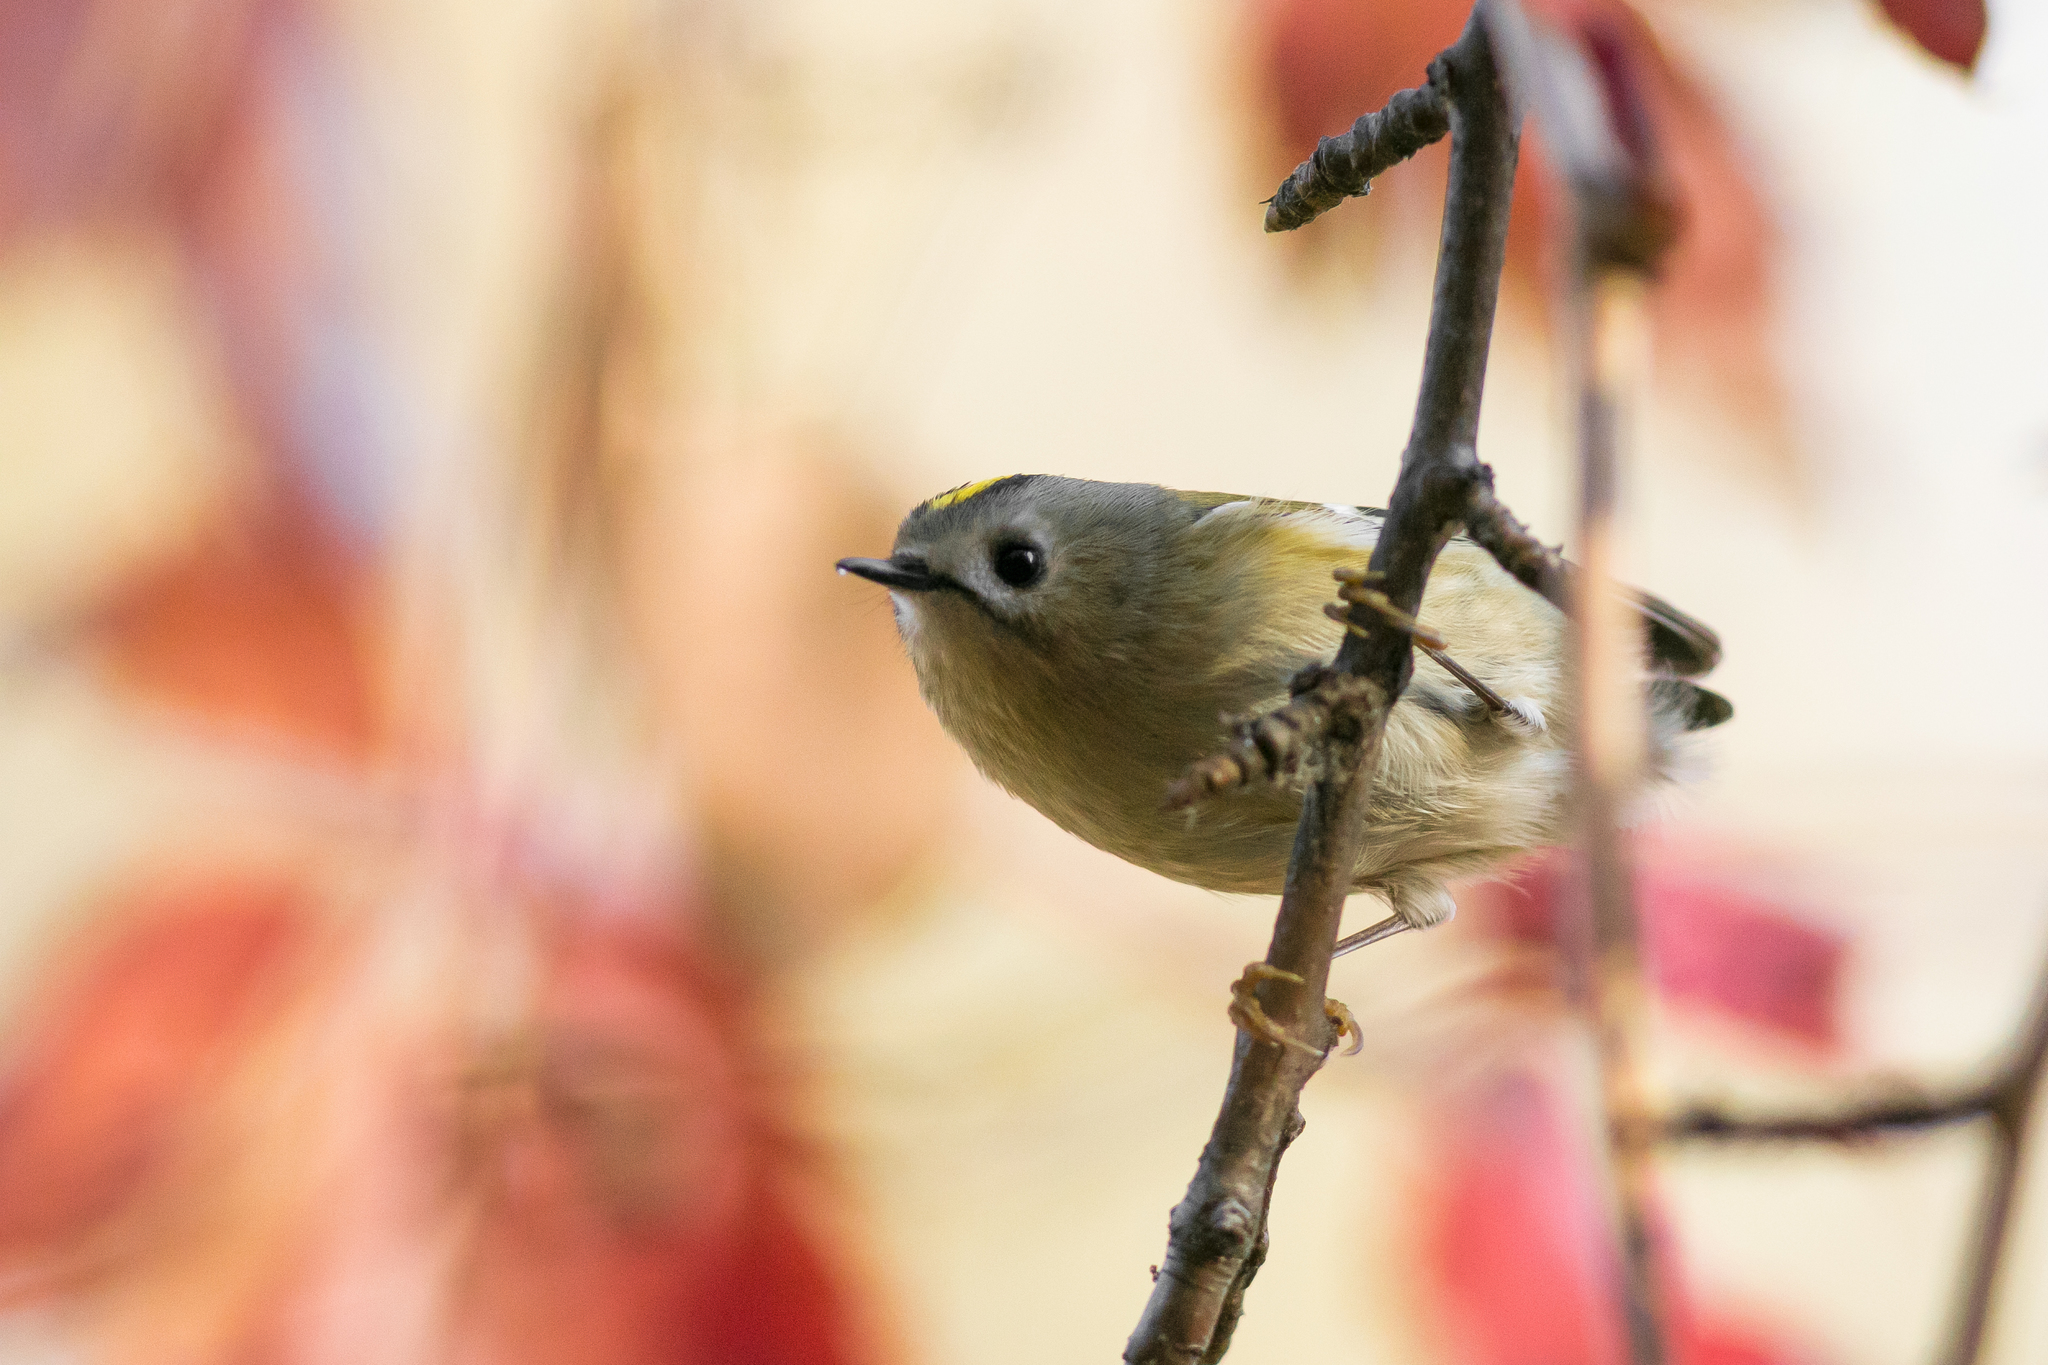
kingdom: Animalia
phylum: Chordata
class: Aves
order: Passeriformes
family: Regulidae
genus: Regulus
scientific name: Regulus regulus
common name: Goldcrest
